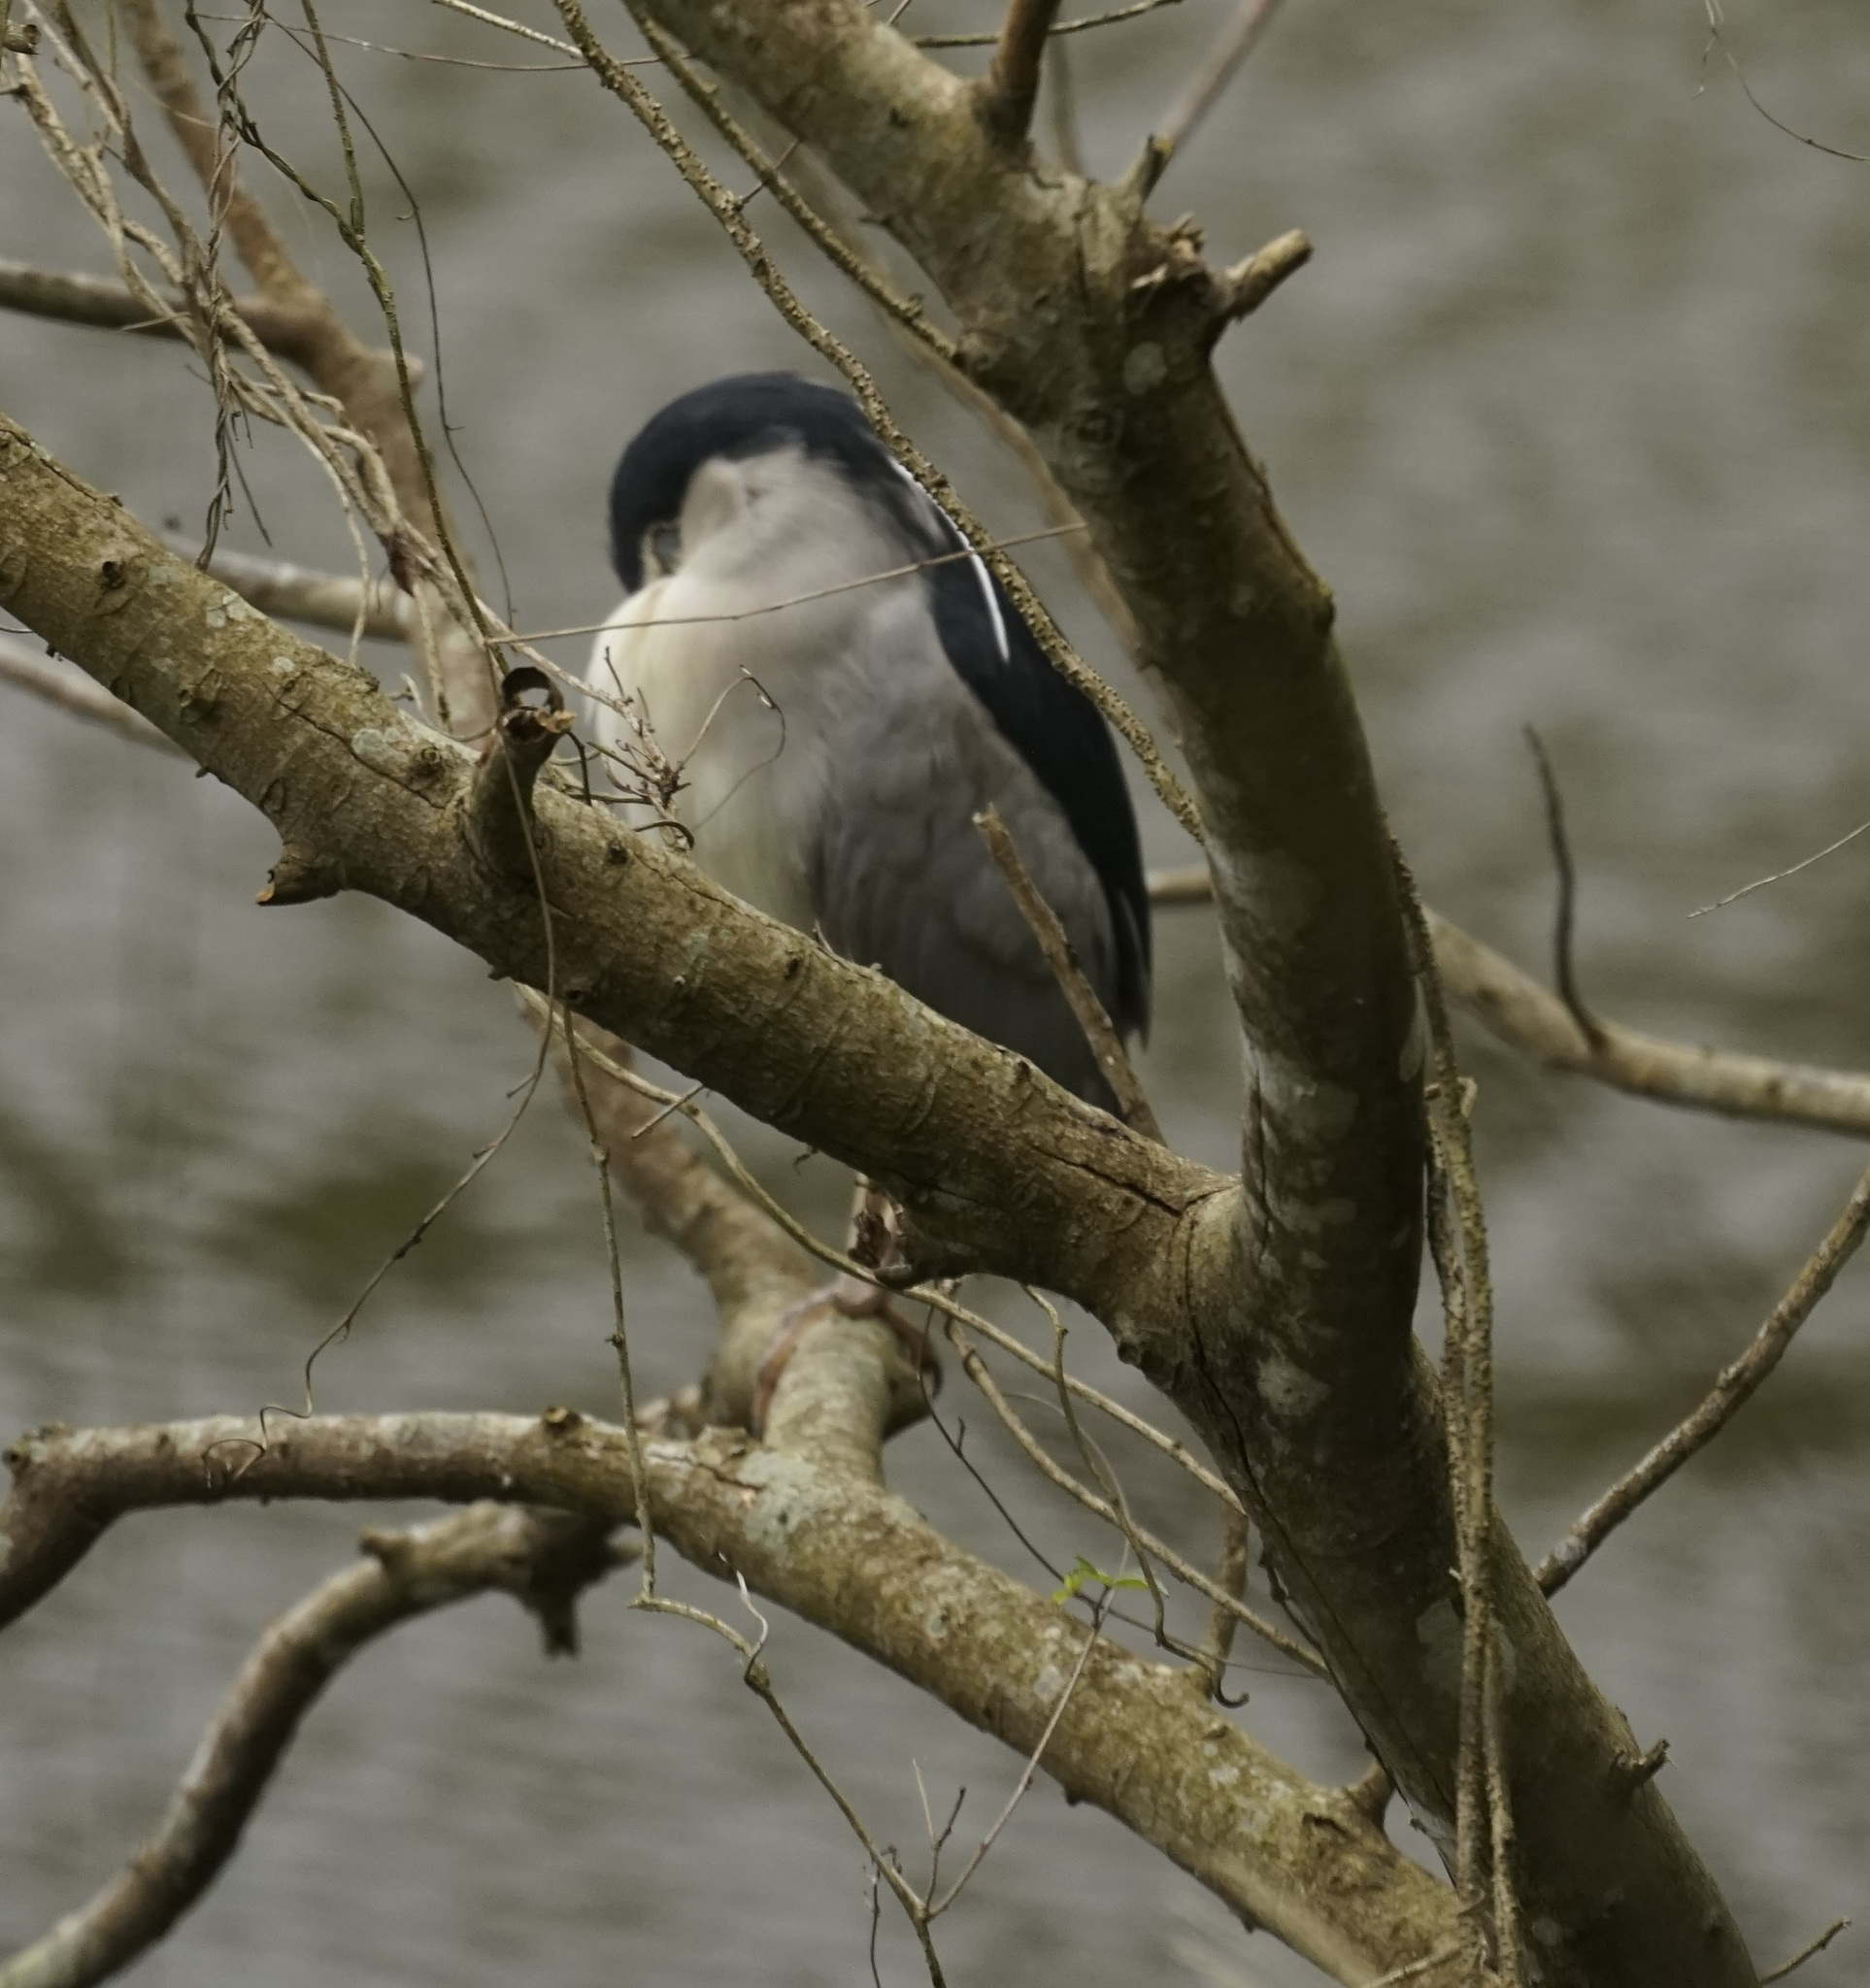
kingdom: Animalia
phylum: Chordata
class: Aves
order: Pelecaniformes
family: Ardeidae
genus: Nycticorax
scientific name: Nycticorax nycticorax
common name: Black-crowned night heron
